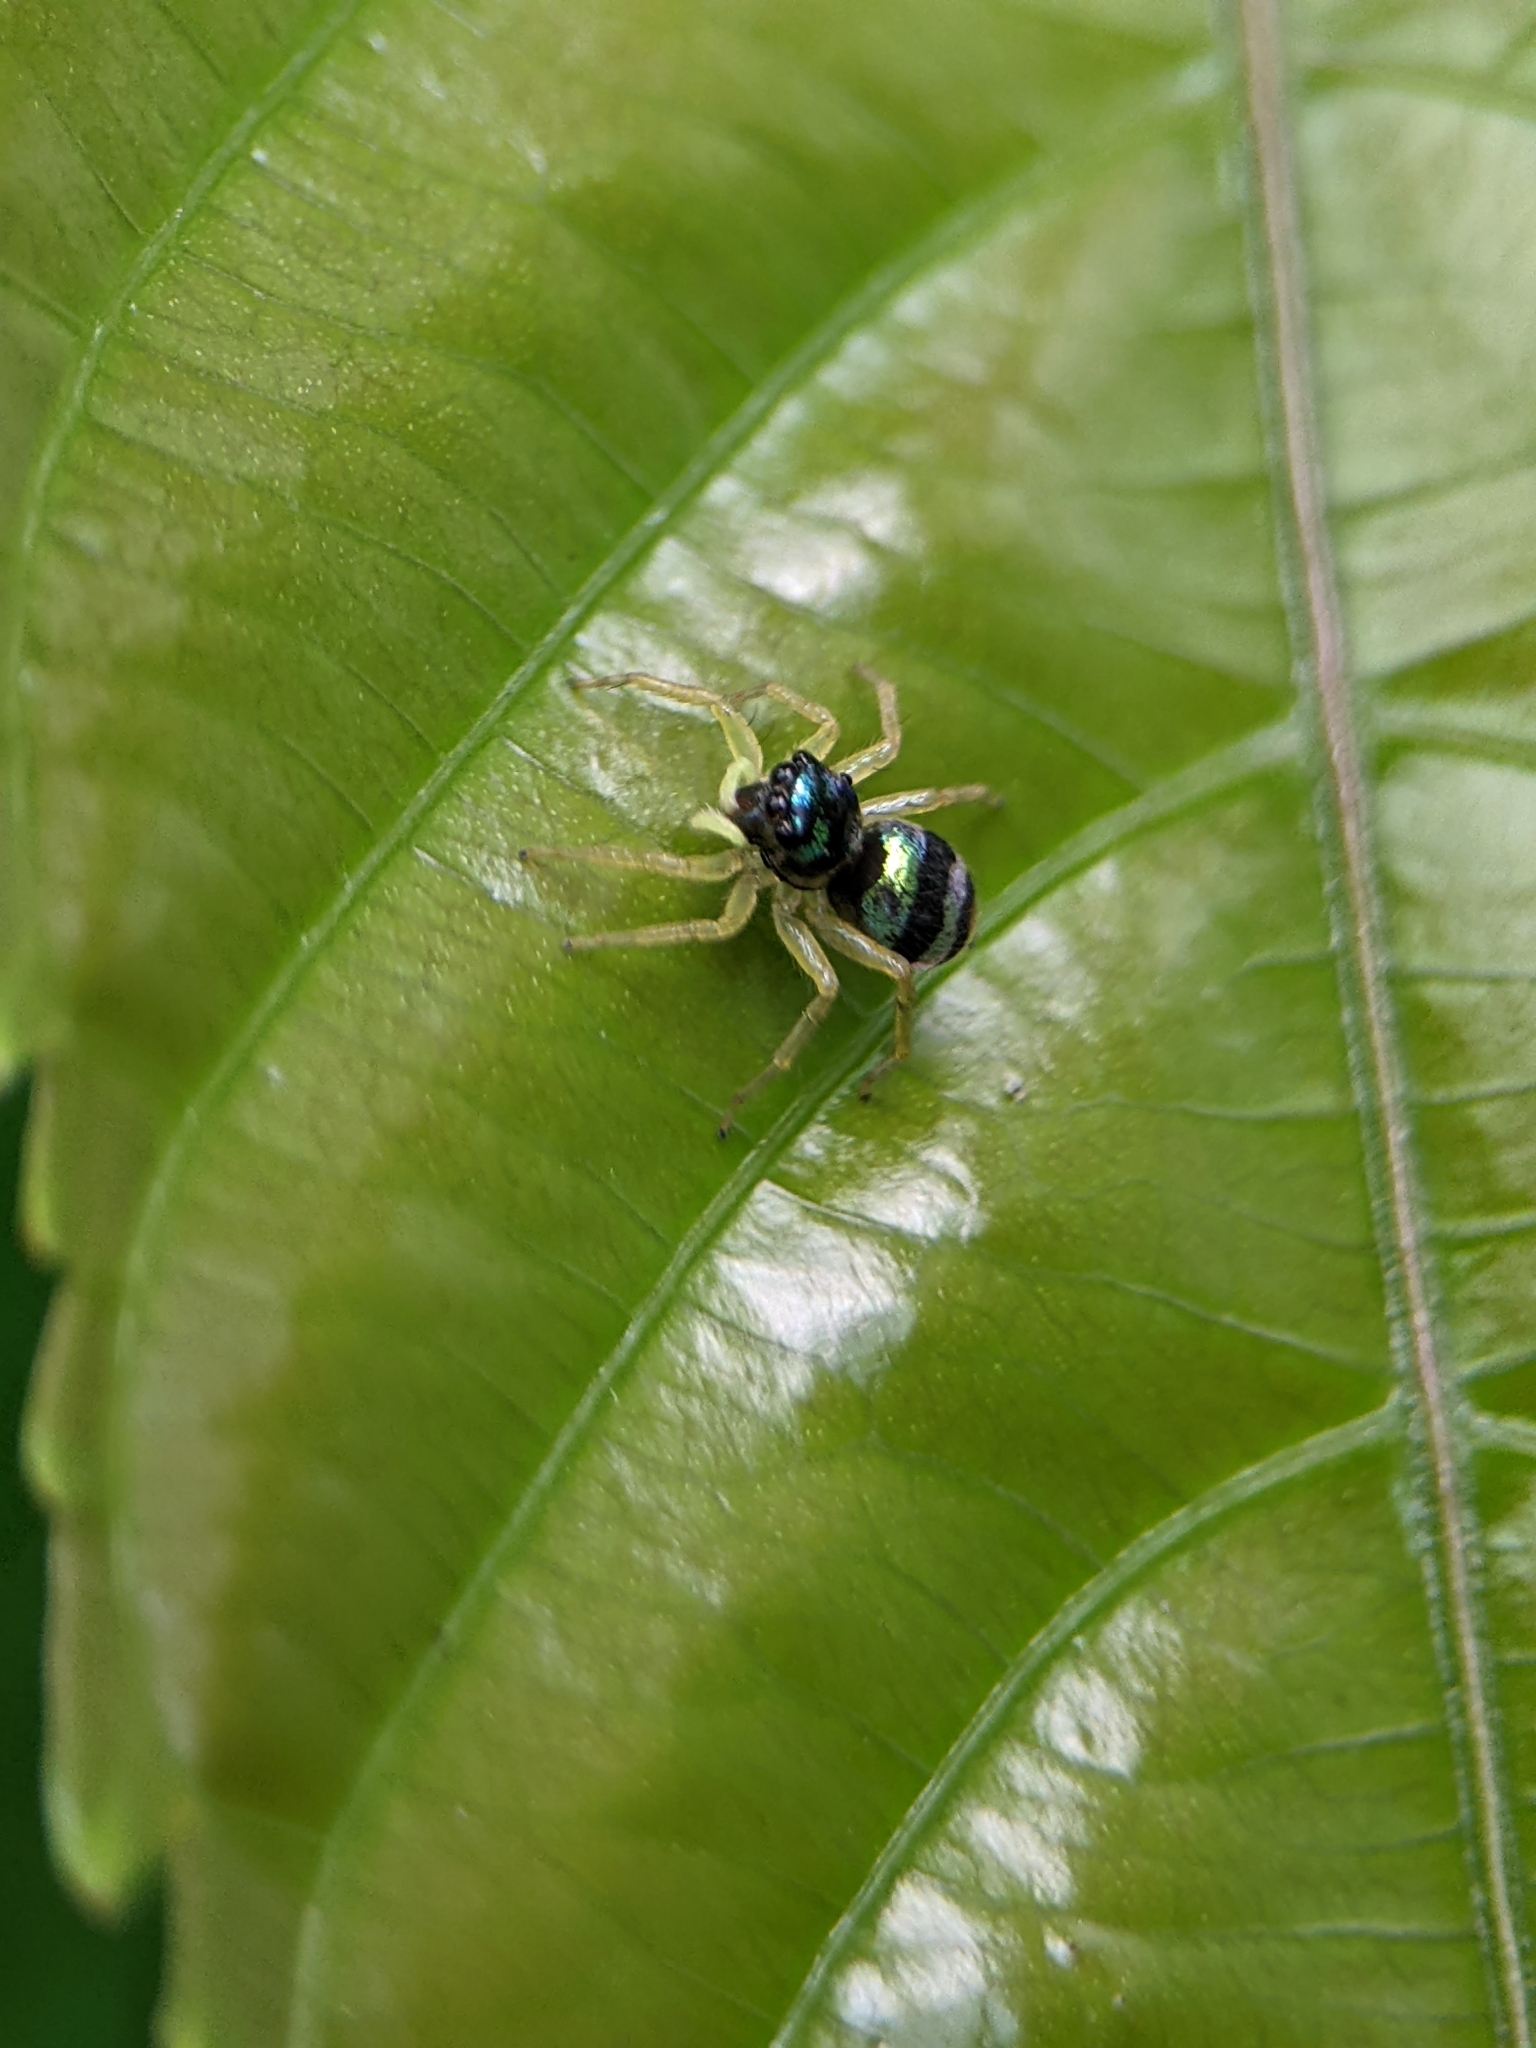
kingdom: Animalia
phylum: Arthropoda
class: Arachnida
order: Araneae
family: Salticidae
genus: Phintella
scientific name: Phintella vittata
